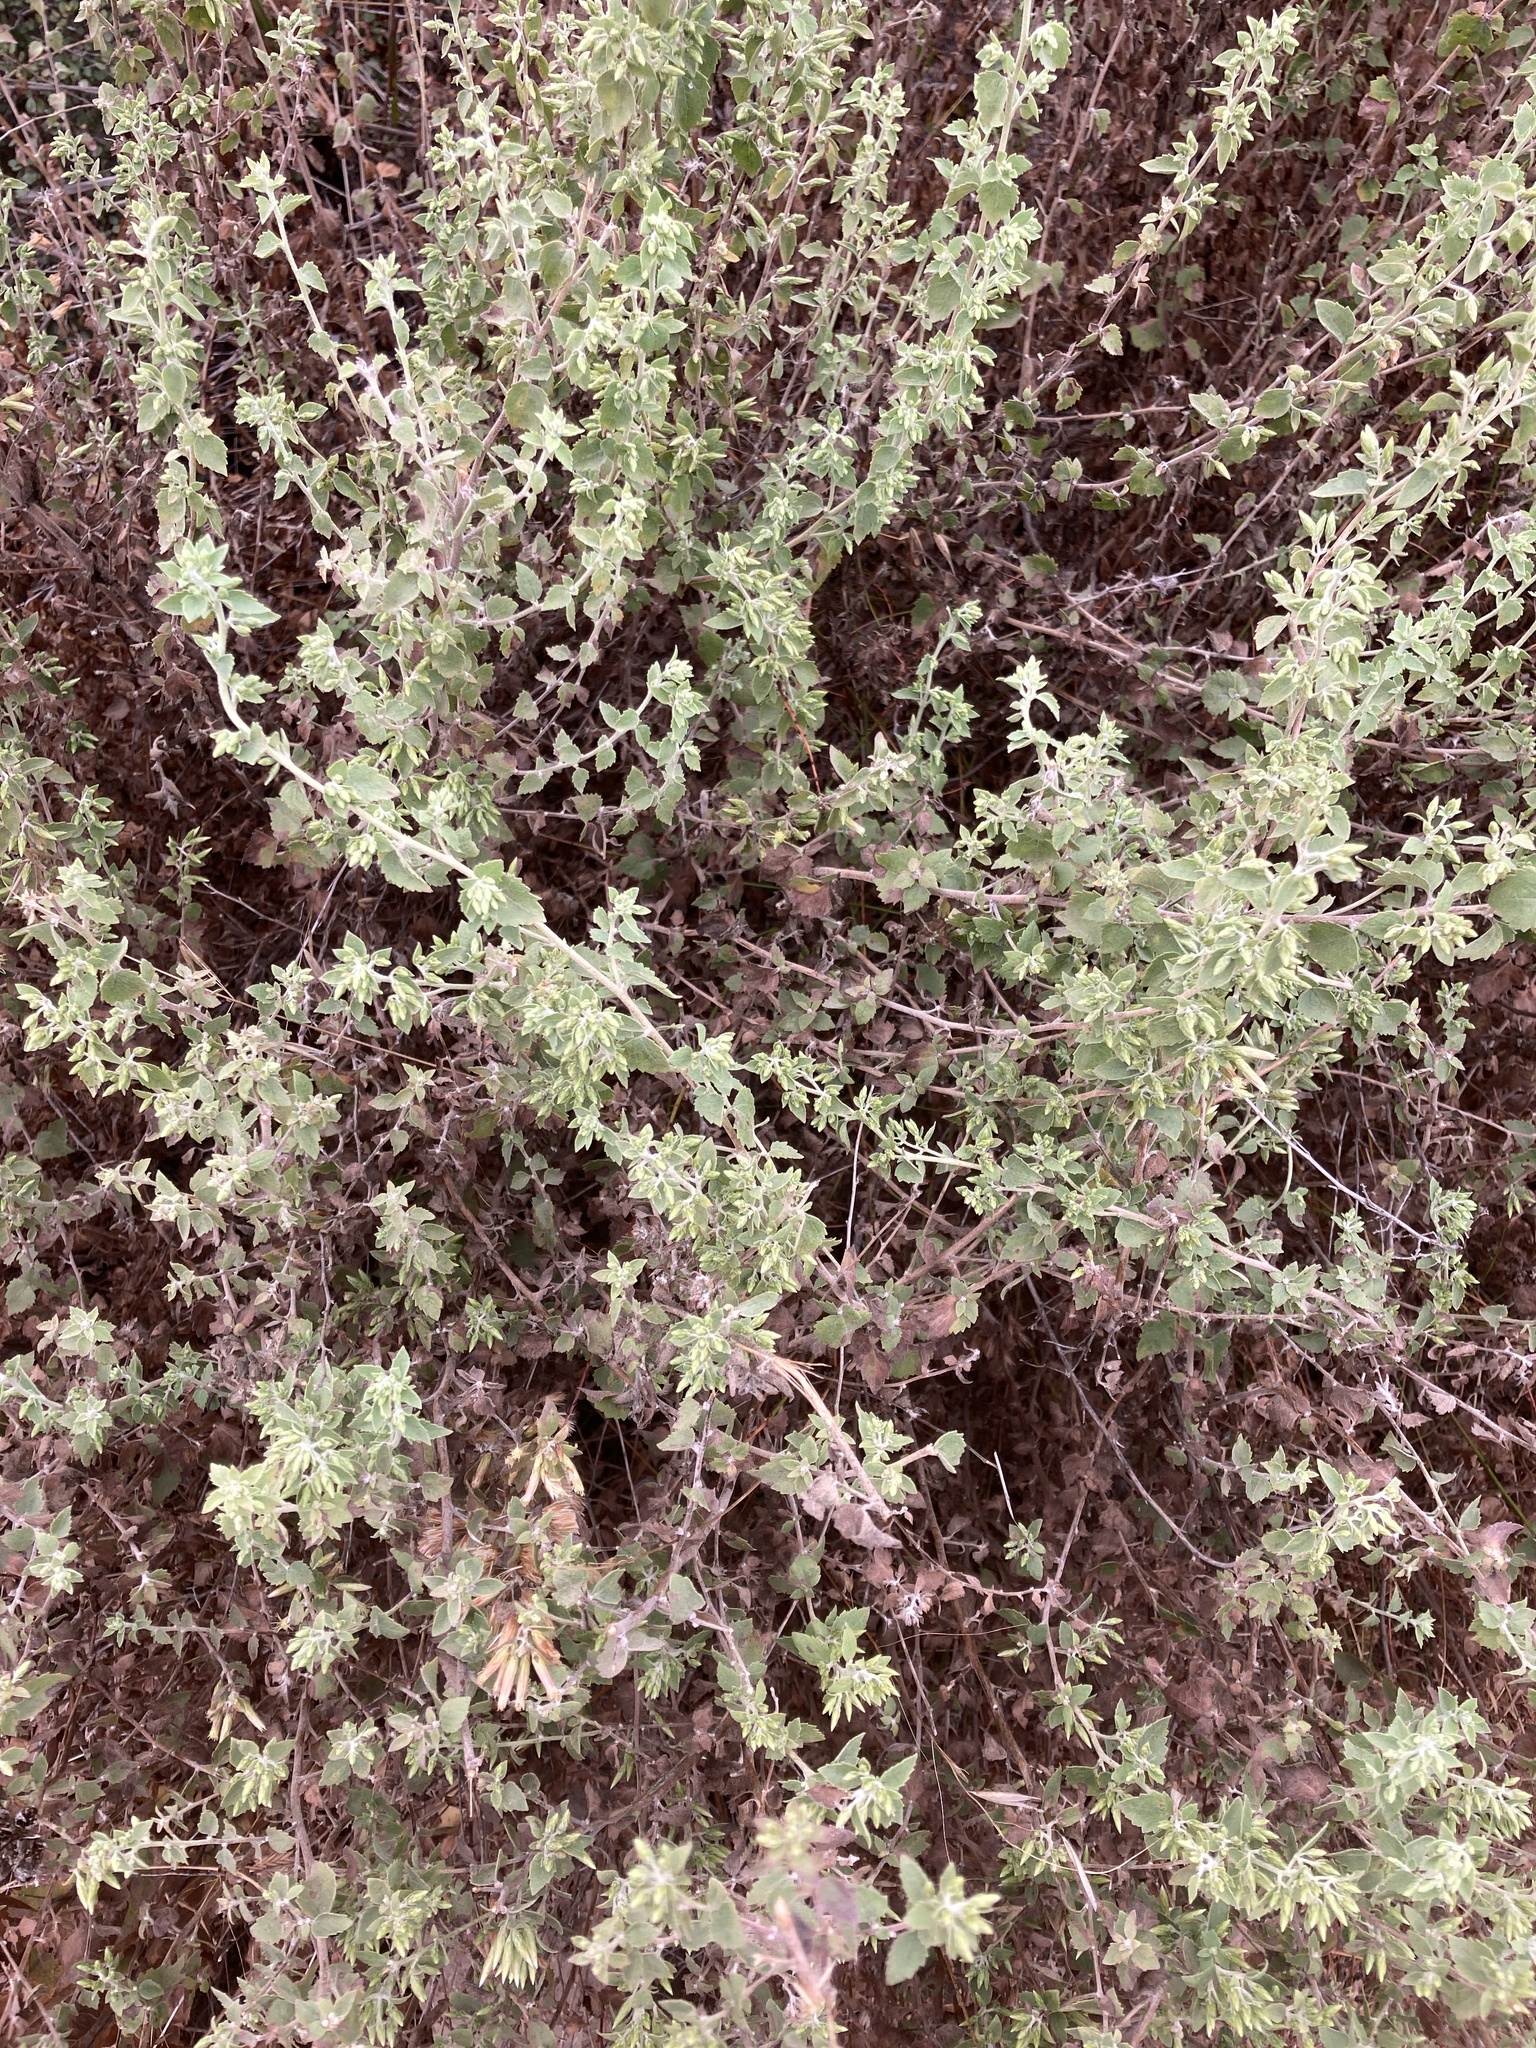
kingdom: Plantae
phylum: Tracheophyta
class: Magnoliopsida
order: Asterales
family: Asteraceae
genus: Brickellia
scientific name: Brickellia californica
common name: California brickellbush
